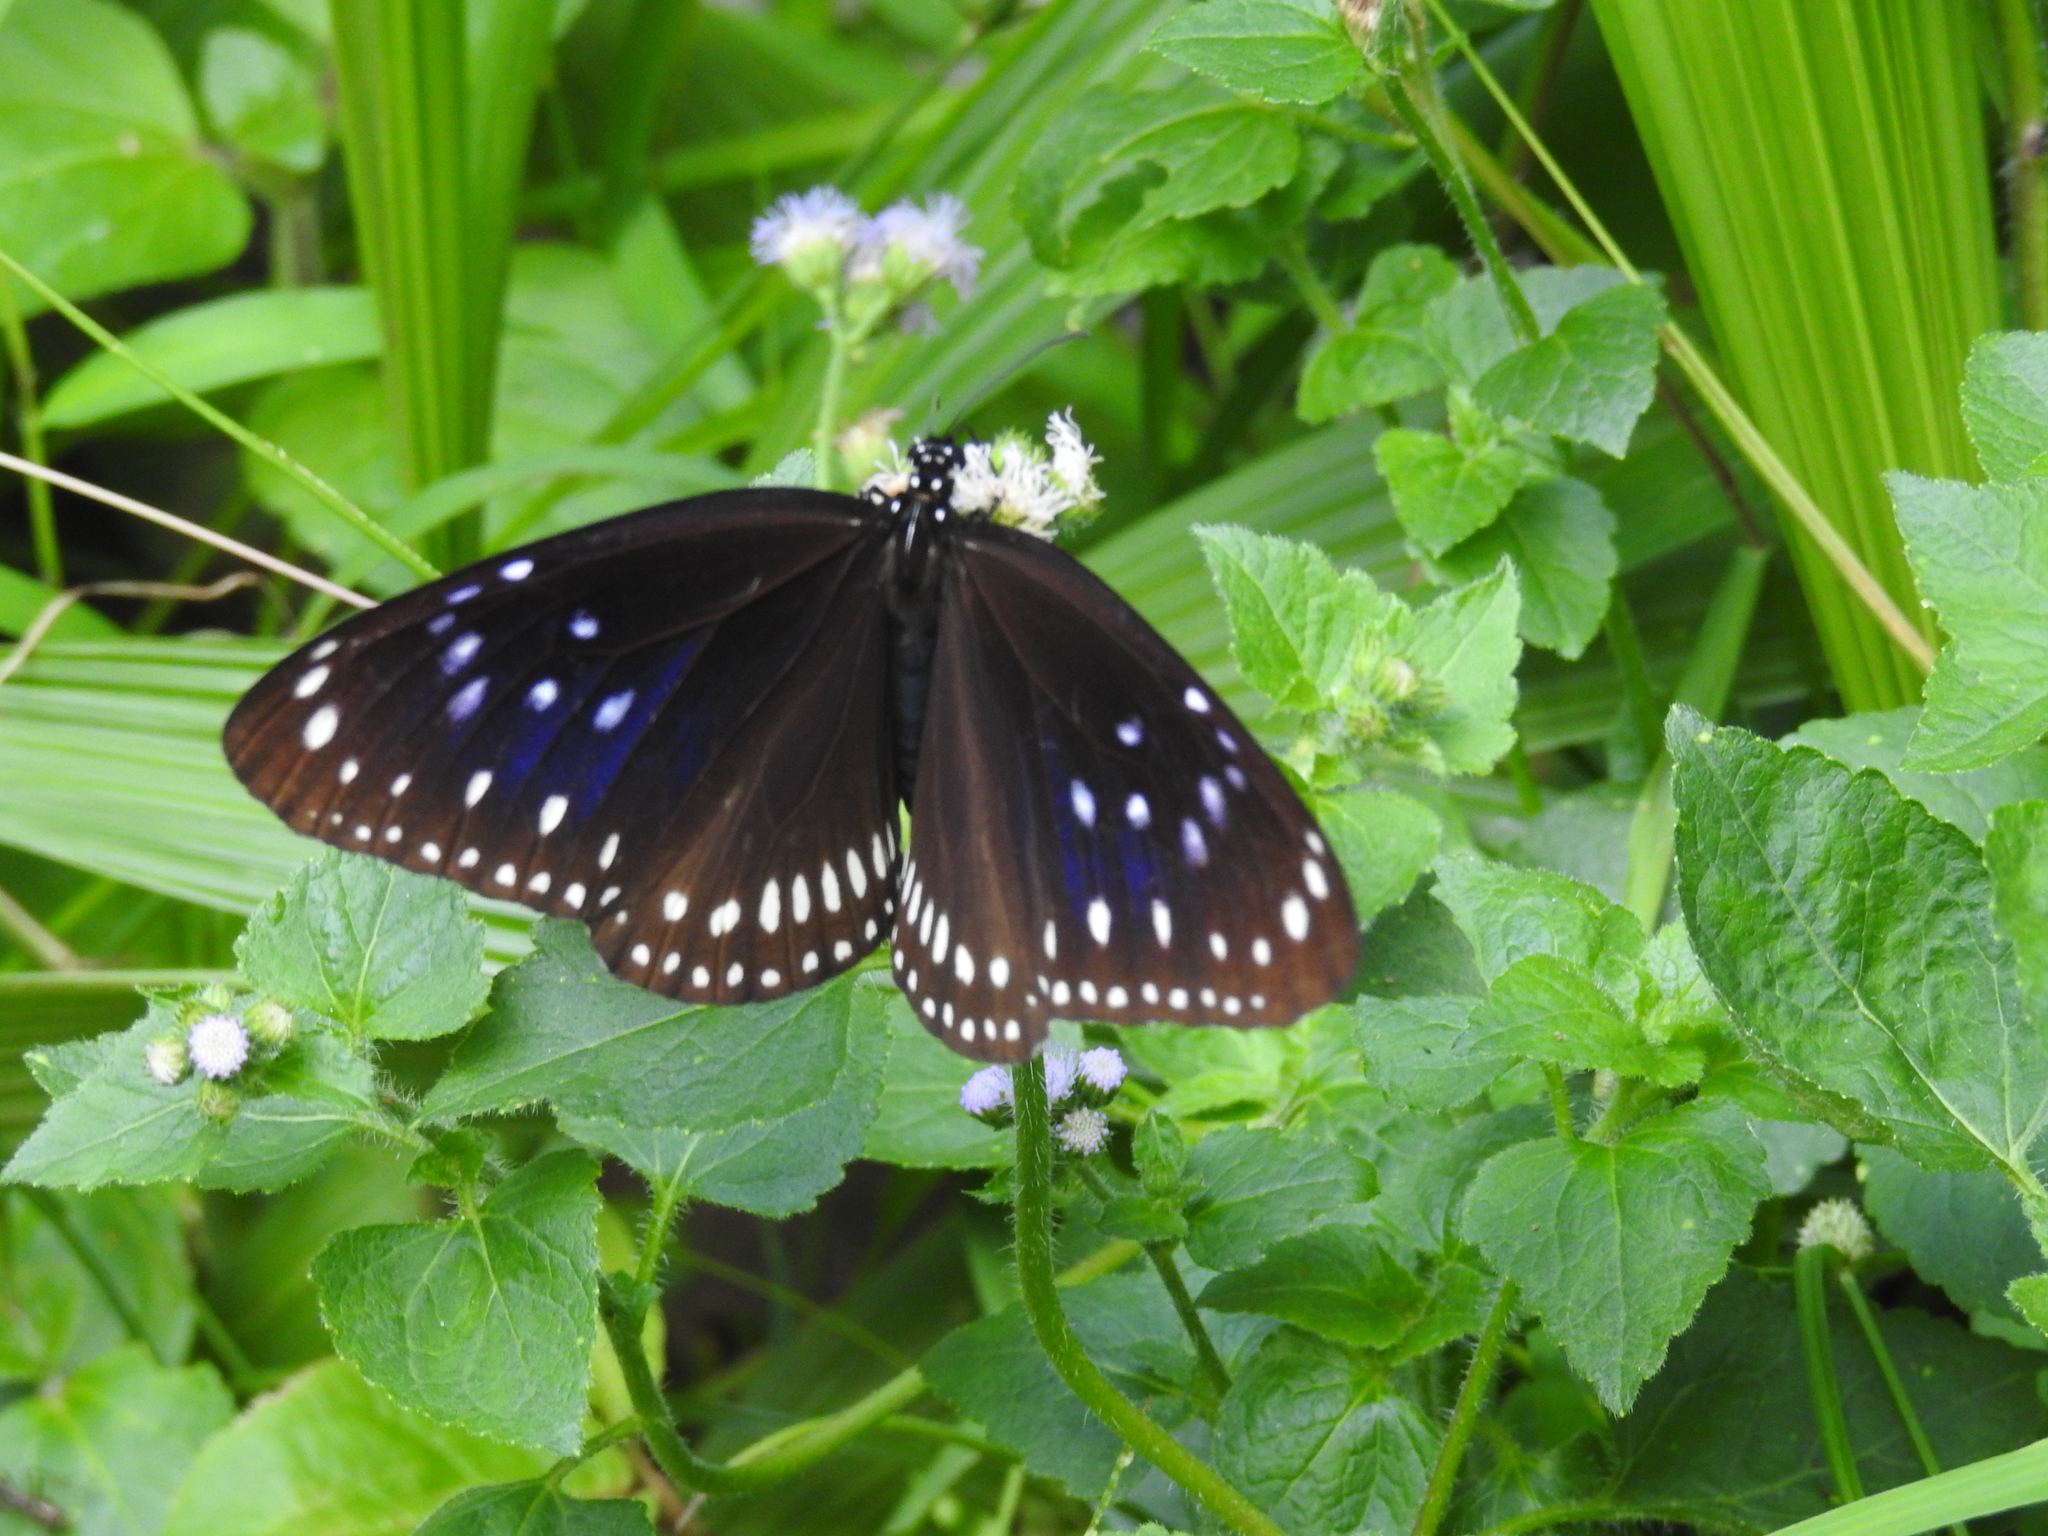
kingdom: Animalia
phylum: Arthropoda
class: Insecta
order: Lepidoptera
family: Nymphalidae
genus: Euploea
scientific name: Euploea midamus
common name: Blue-spotted crow butterfly
